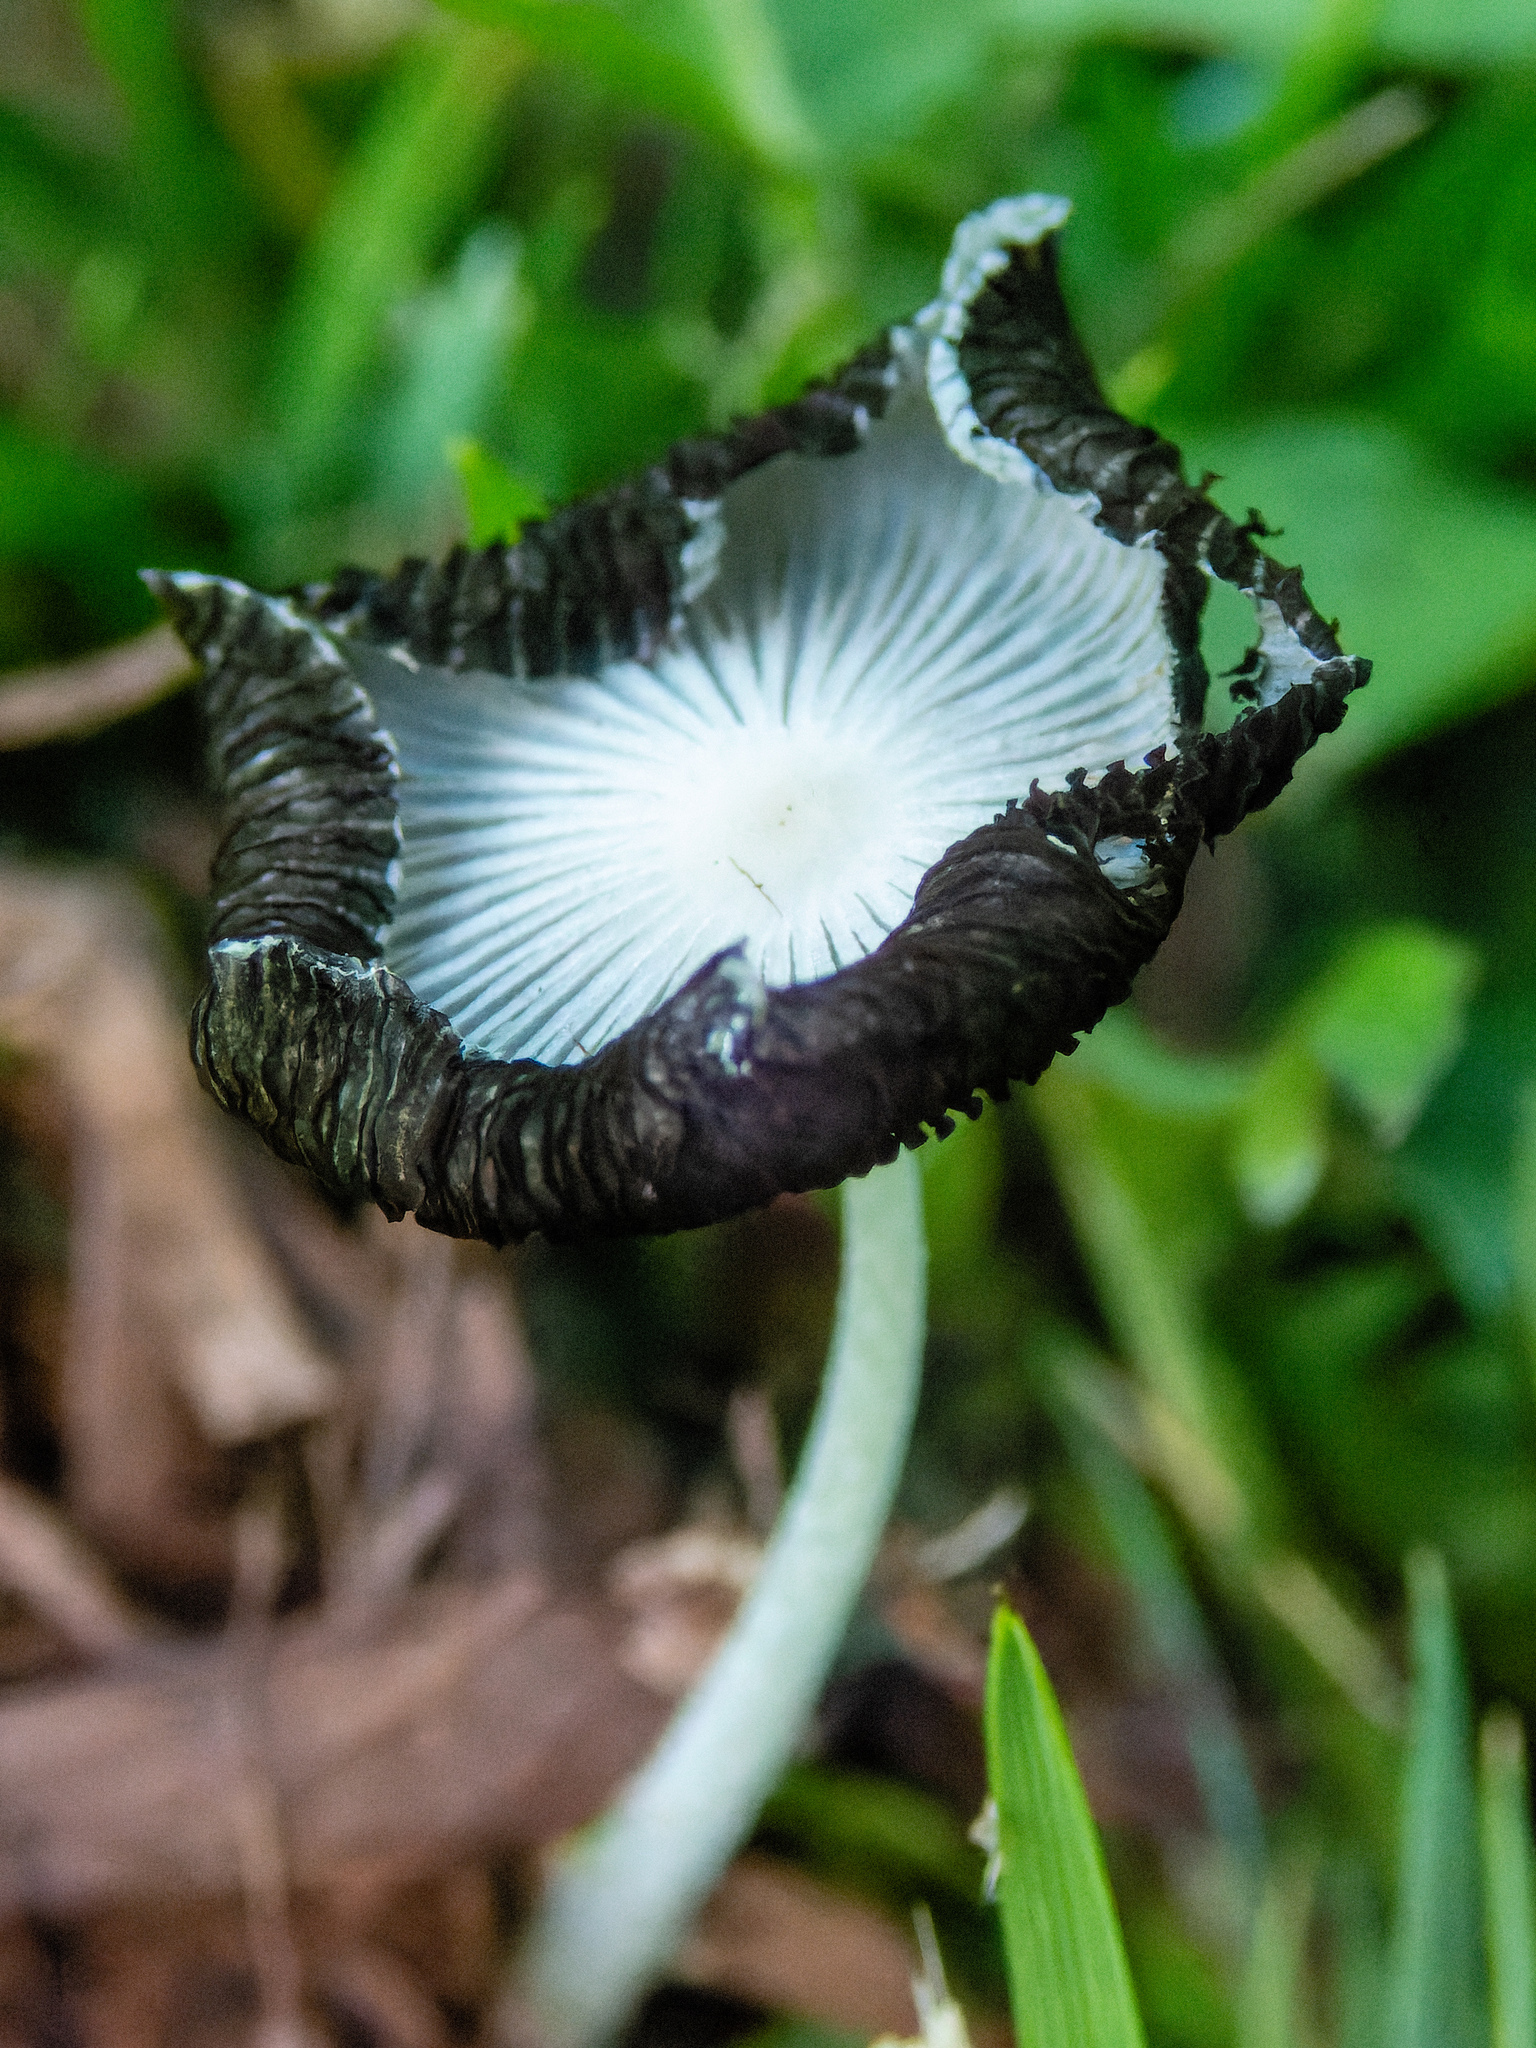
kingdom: Fungi
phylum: Basidiomycota
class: Agaricomycetes
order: Agaricales
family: Psathyrellaceae
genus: Coprinopsis
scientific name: Coprinopsis lagopus
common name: Hare'sfoot inkcap
